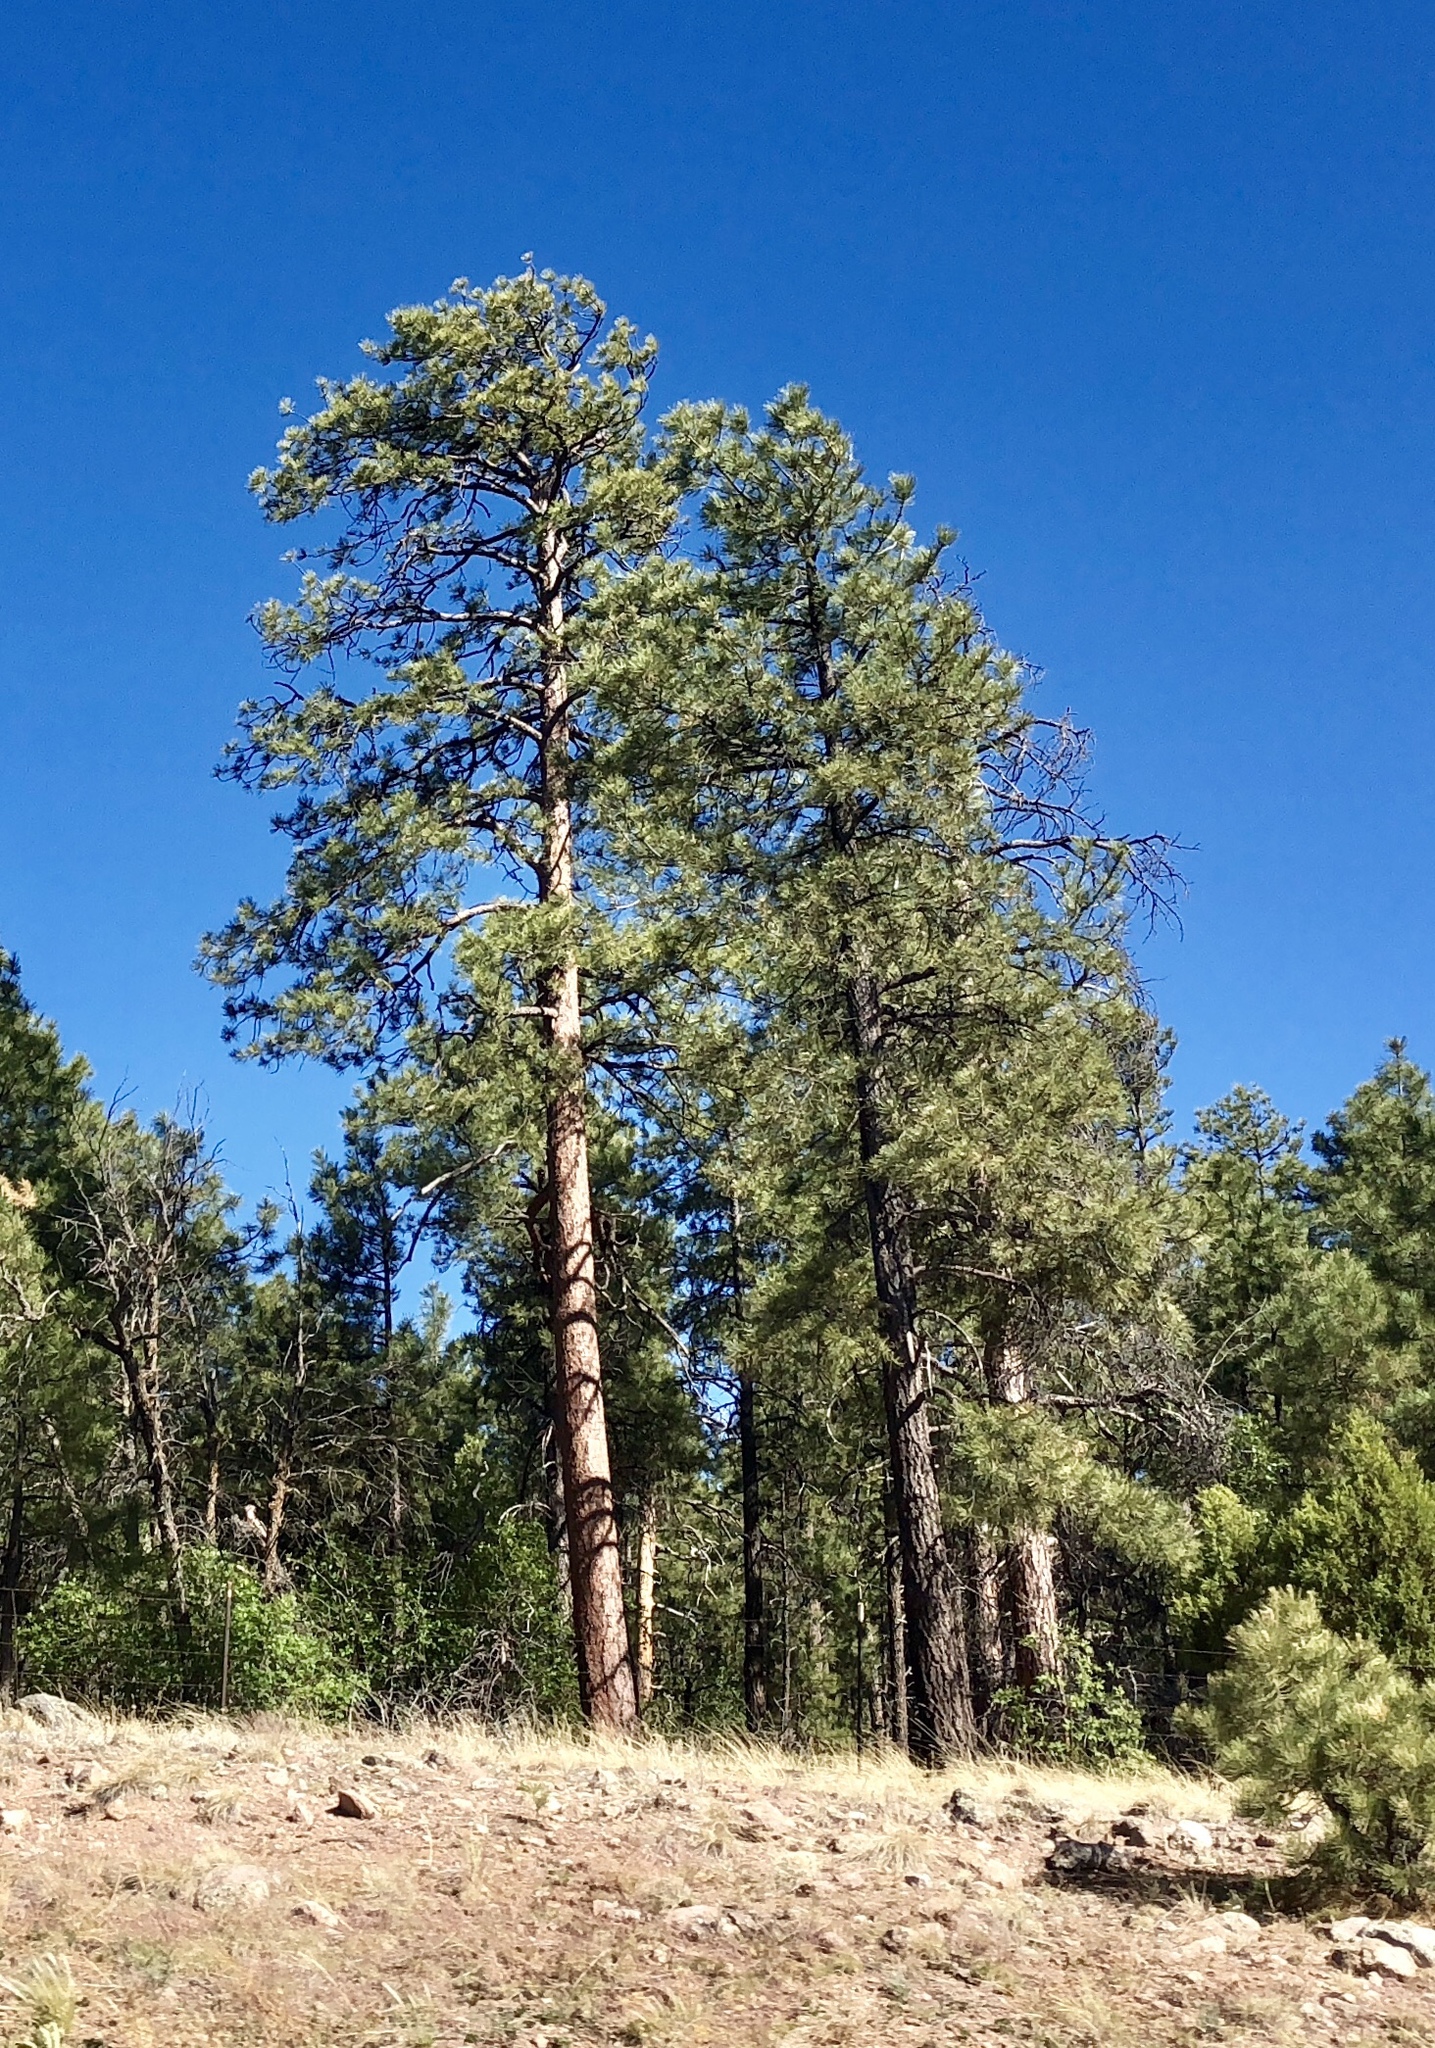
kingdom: Plantae
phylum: Tracheophyta
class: Pinopsida
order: Pinales
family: Pinaceae
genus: Pinus
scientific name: Pinus ponderosa
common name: Western yellow-pine
